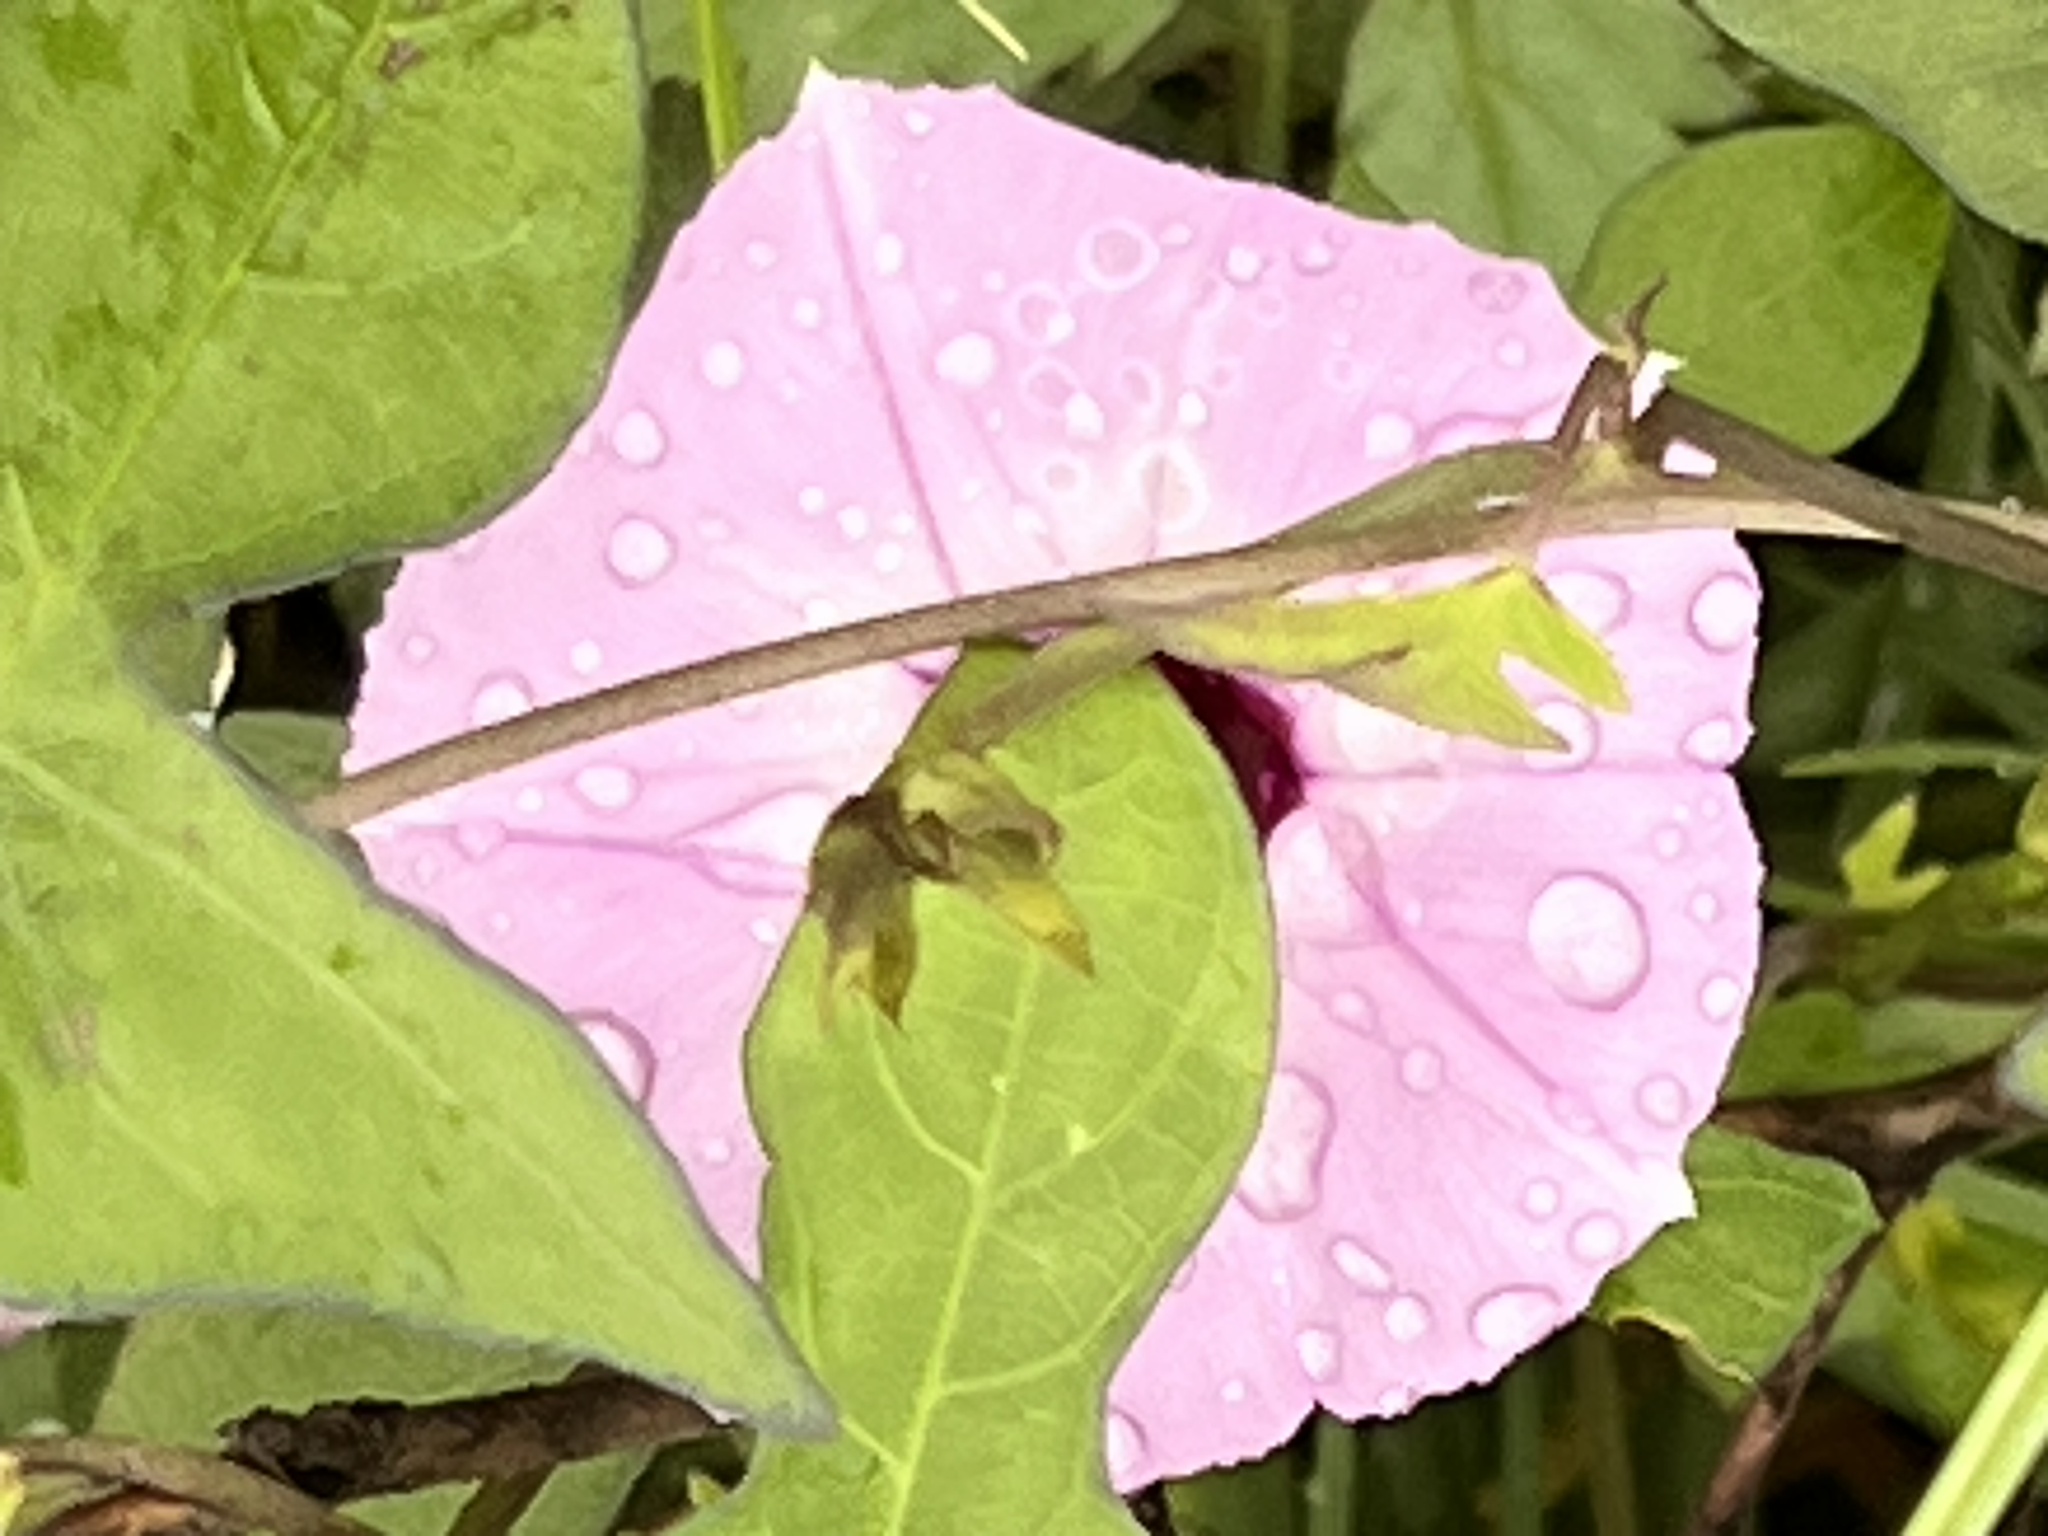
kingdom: Plantae
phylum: Tracheophyta
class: Magnoliopsida
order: Solanales
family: Convolvulaceae
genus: Ipomoea
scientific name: Ipomoea cordatotriloba
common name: Cotton morning glory
